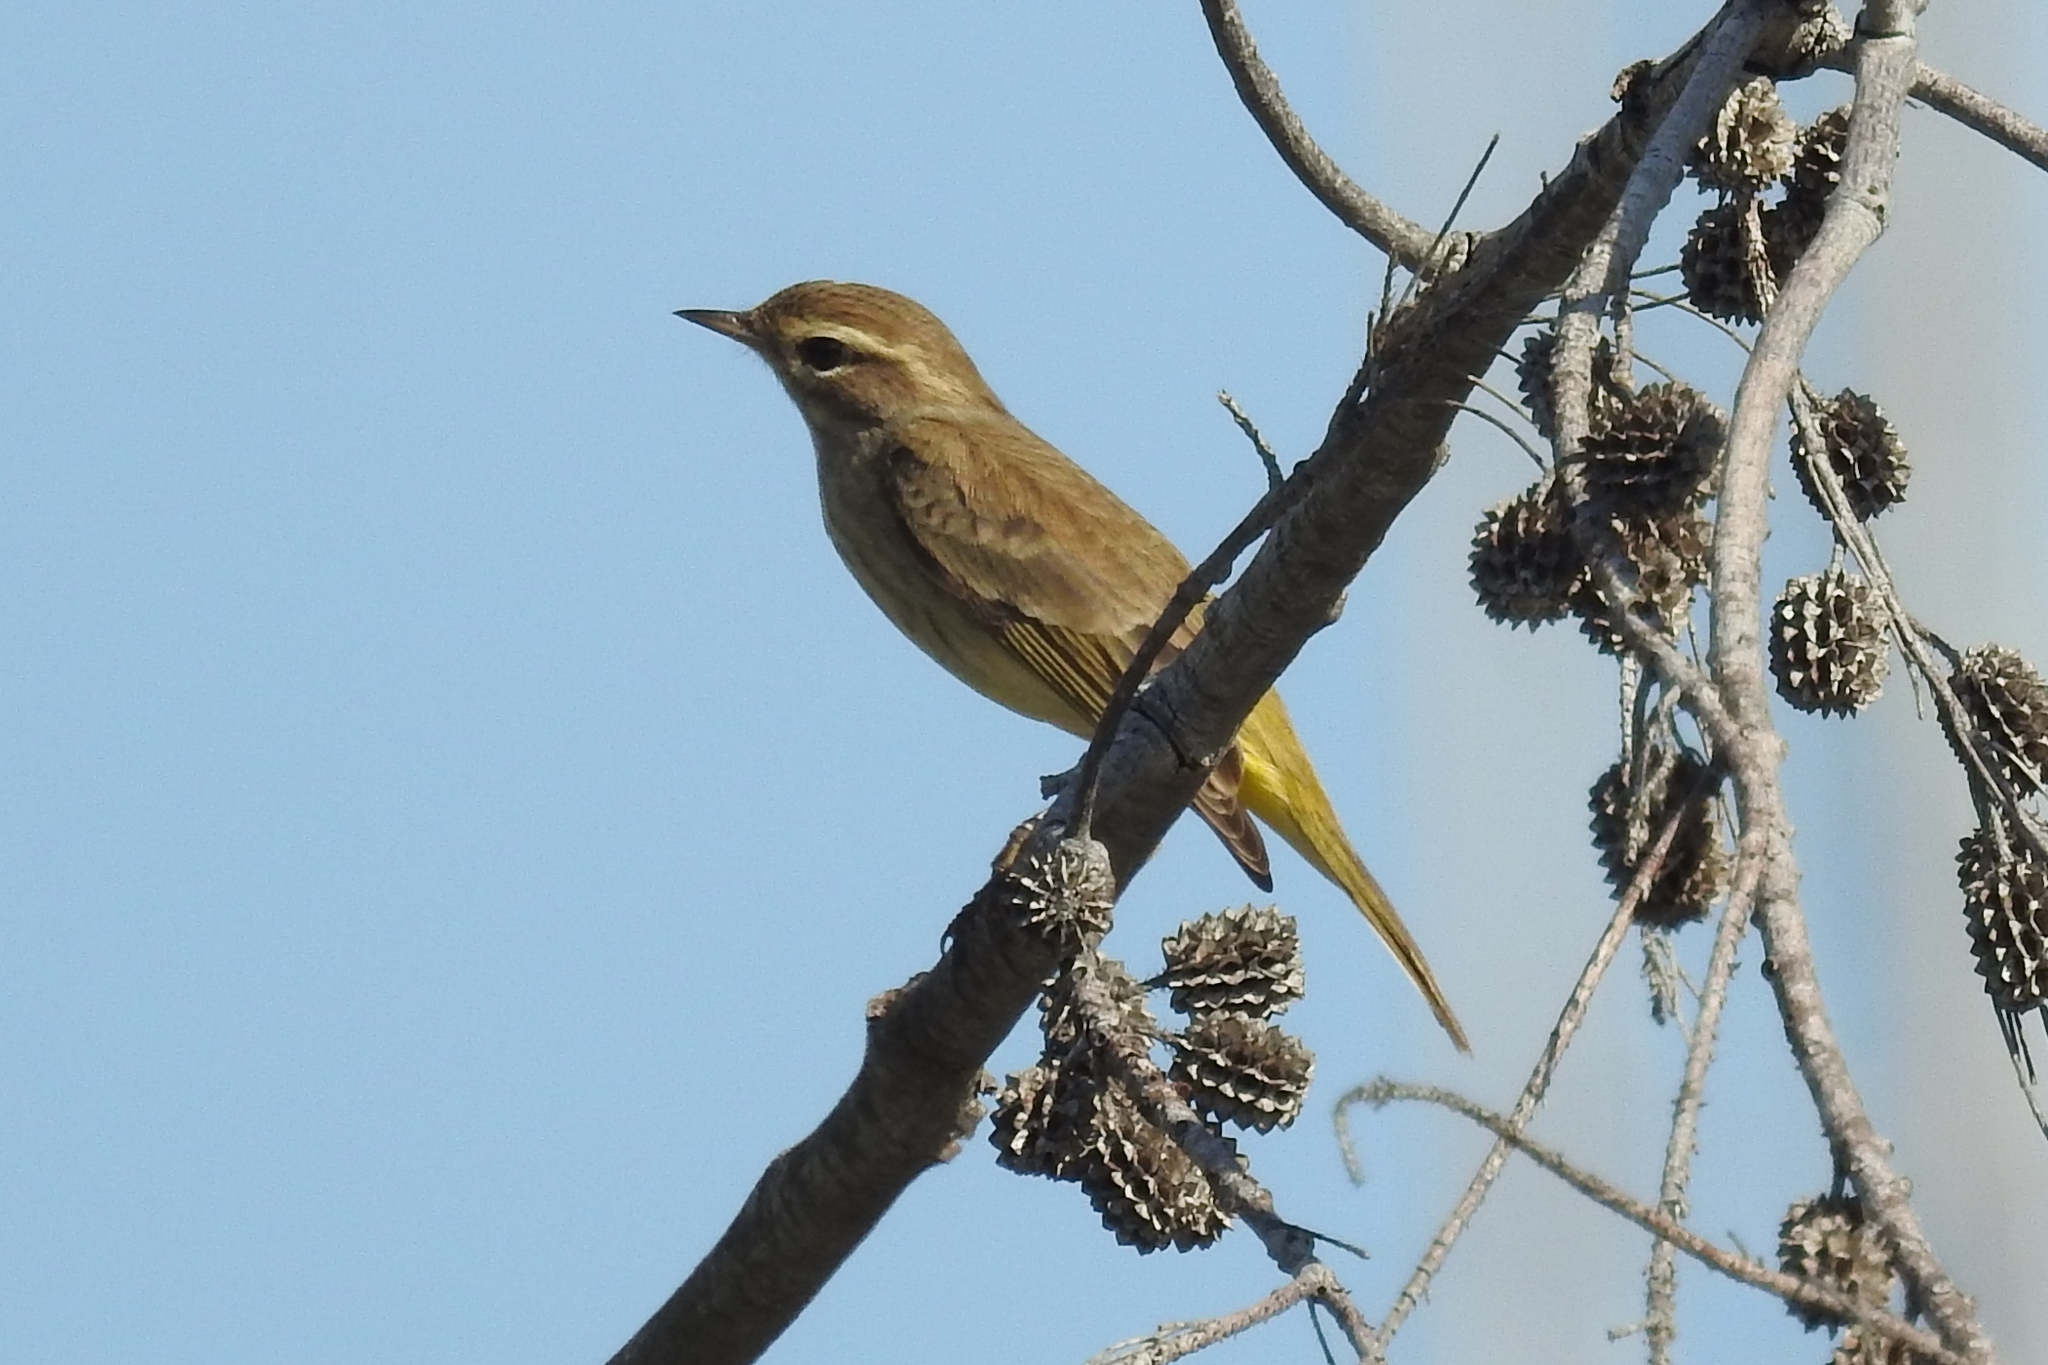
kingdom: Animalia
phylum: Chordata
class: Aves
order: Passeriformes
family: Parulidae
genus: Setophaga
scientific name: Setophaga palmarum
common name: Palm warbler
